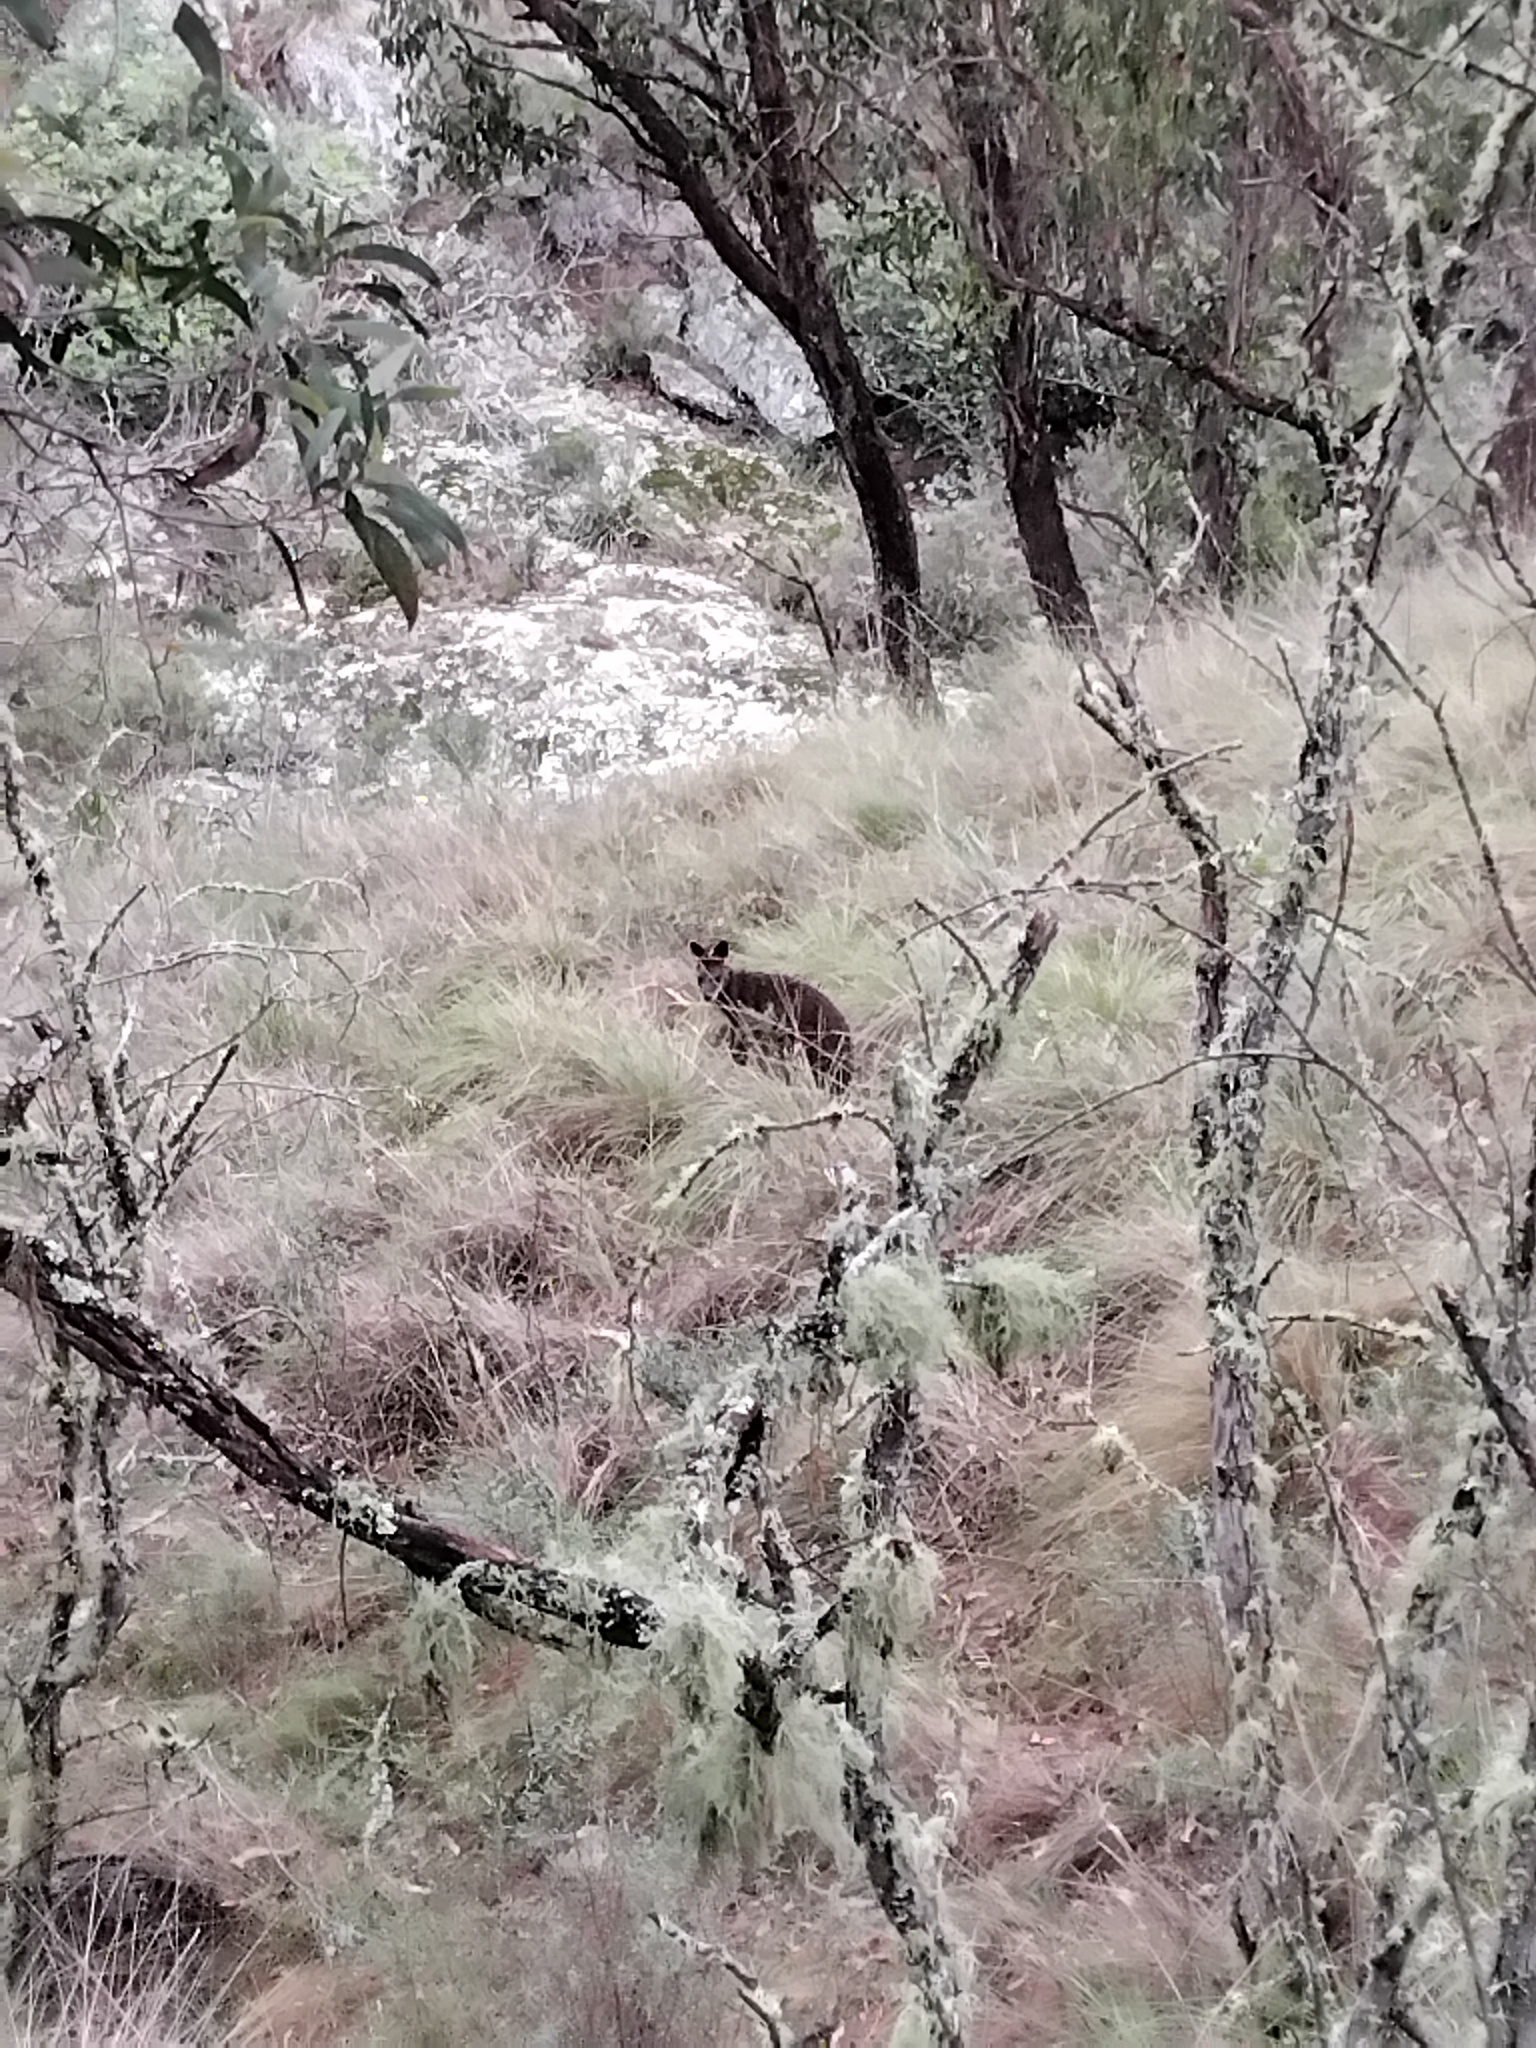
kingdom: Animalia
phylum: Chordata
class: Mammalia
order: Diprotodontia
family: Macropodidae
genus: Wallabia
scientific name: Wallabia bicolor
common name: Swamp wallaby
